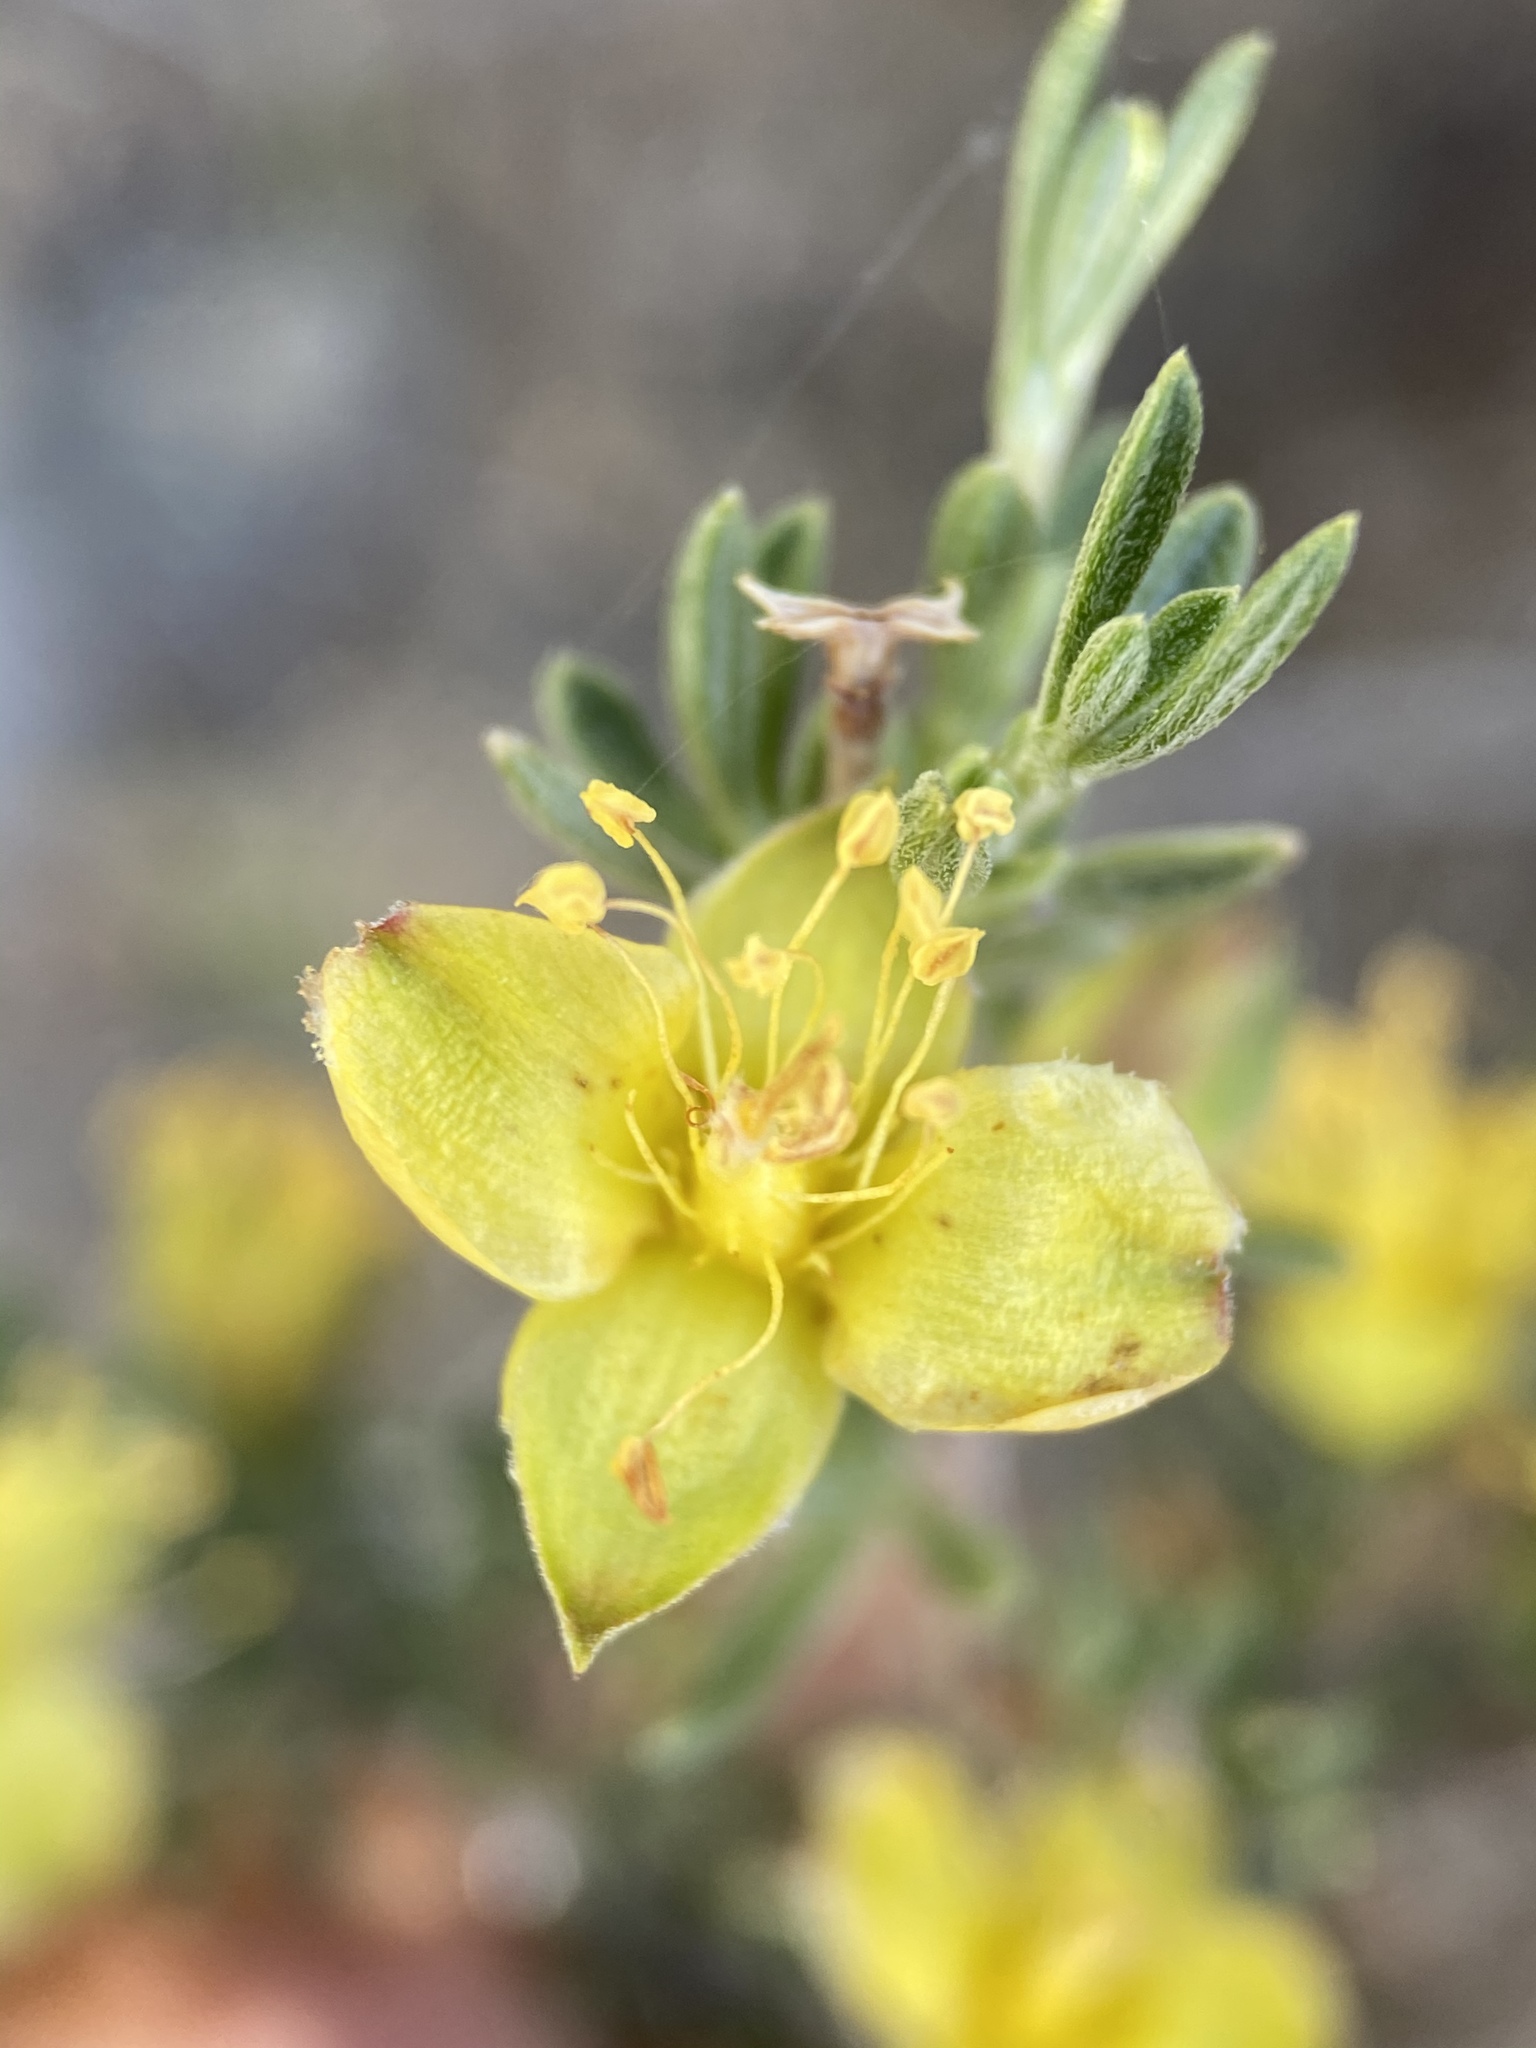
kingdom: Plantae
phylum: Tracheophyta
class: Magnoliopsida
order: Rosales
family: Rosaceae
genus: Coleogyne
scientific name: Coleogyne ramosissima
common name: Blackbrush
